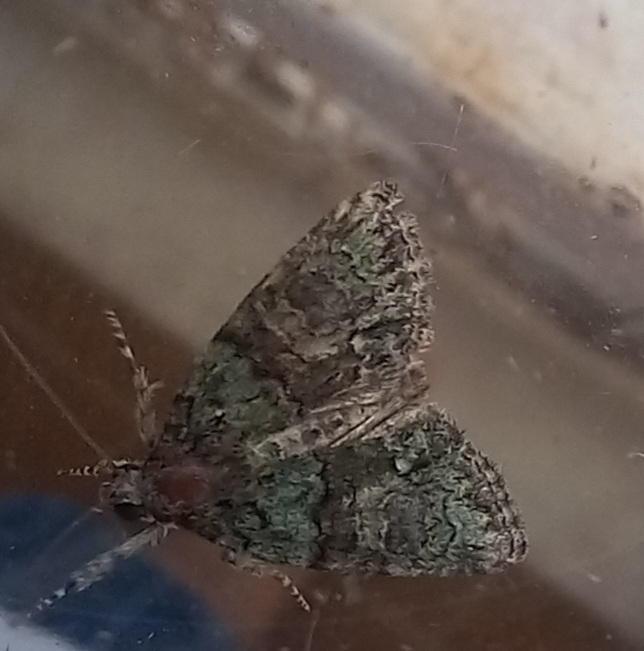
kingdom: Animalia
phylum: Arthropoda
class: Insecta
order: Lepidoptera
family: Noctuidae
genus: Cryphia
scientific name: Cryphia algae
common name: Tree-lichen beauty
